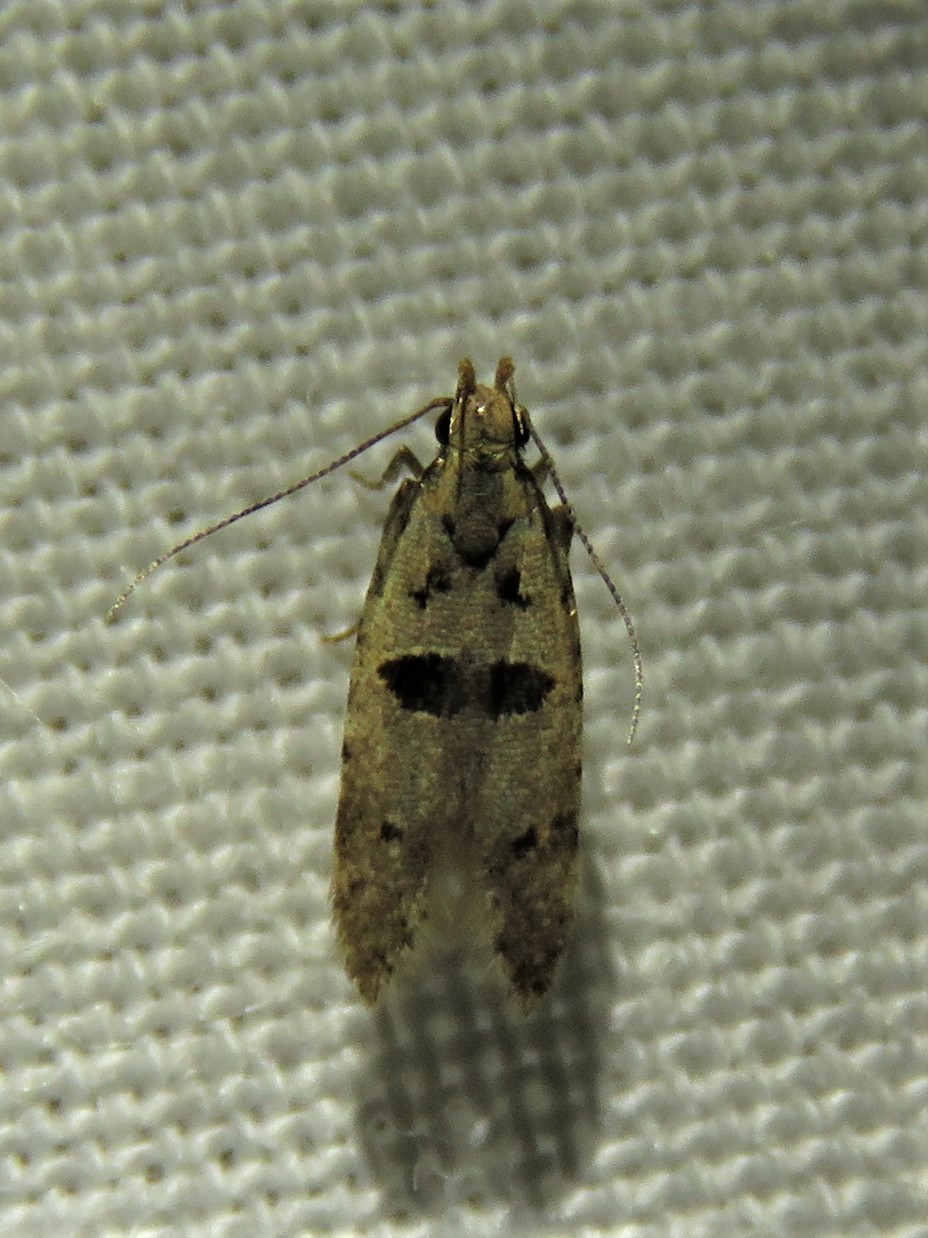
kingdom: Animalia
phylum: Arthropoda
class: Insecta
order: Lepidoptera
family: Gelechiidae
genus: Deltophora
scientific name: Deltophora glandiferella
